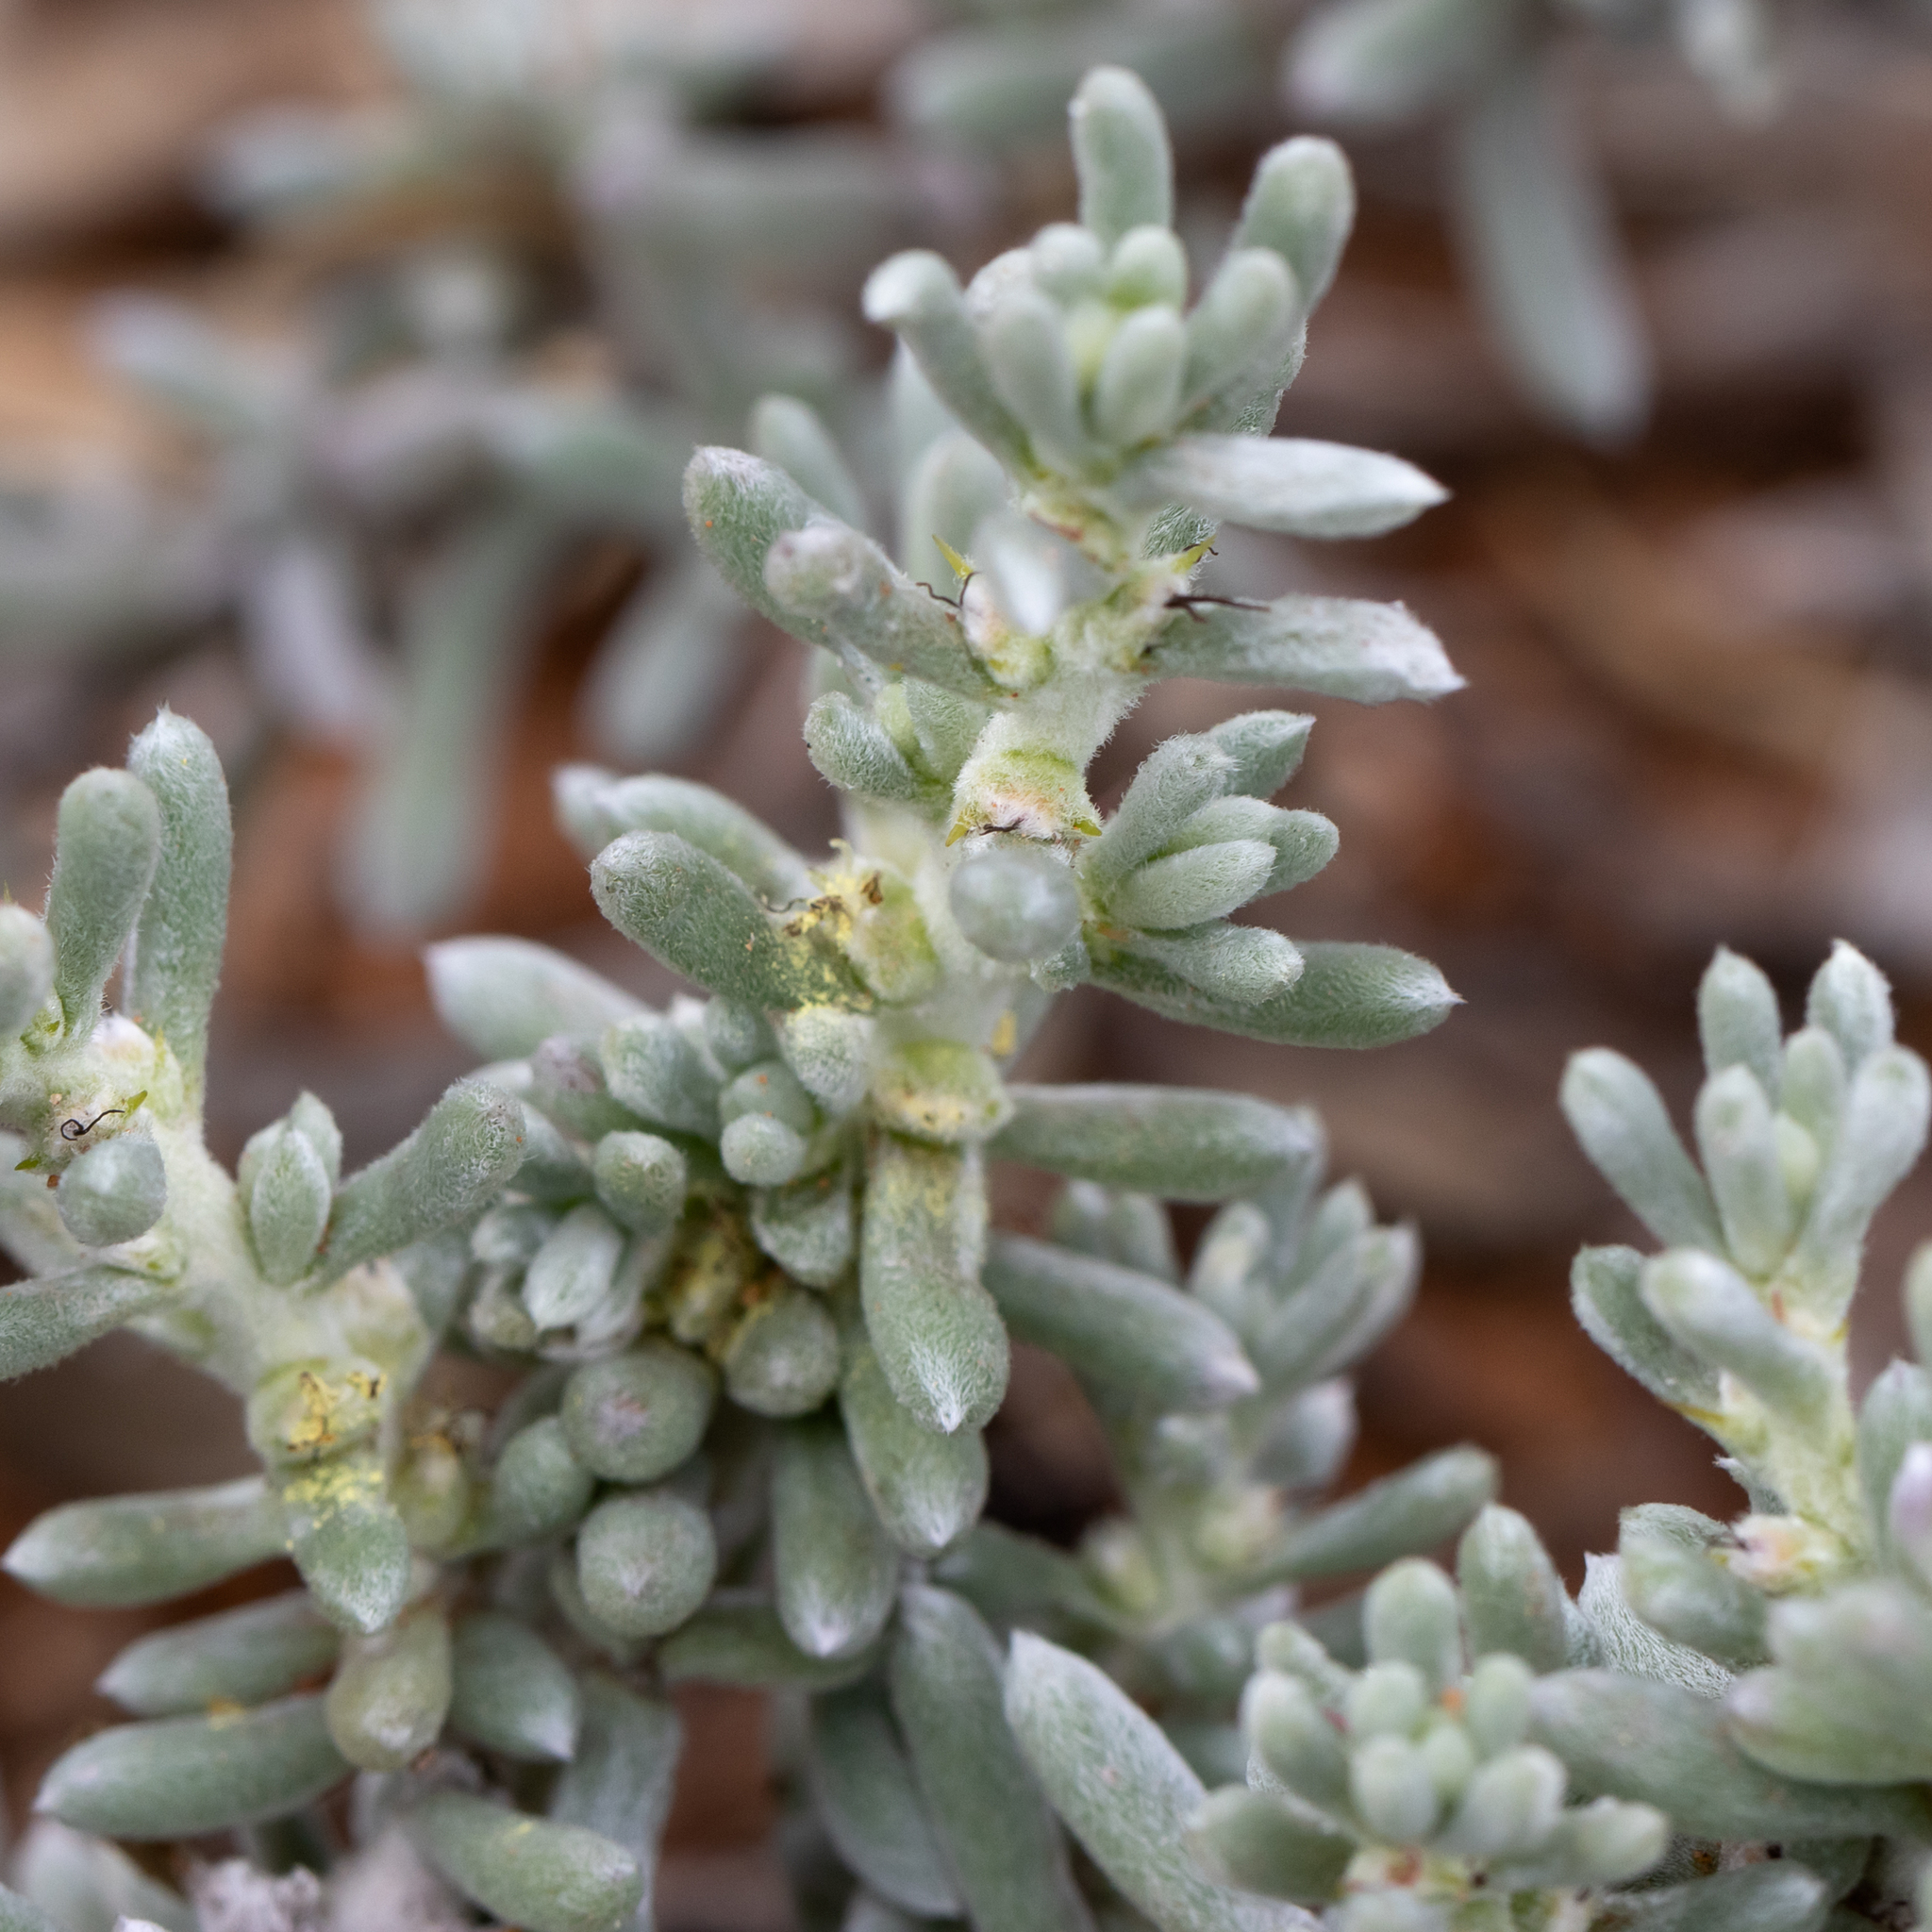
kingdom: Plantae
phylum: Tracheophyta
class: Magnoliopsida
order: Caryophyllales
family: Amaranthaceae
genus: Sclerolaena
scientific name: Sclerolaena diacantha
